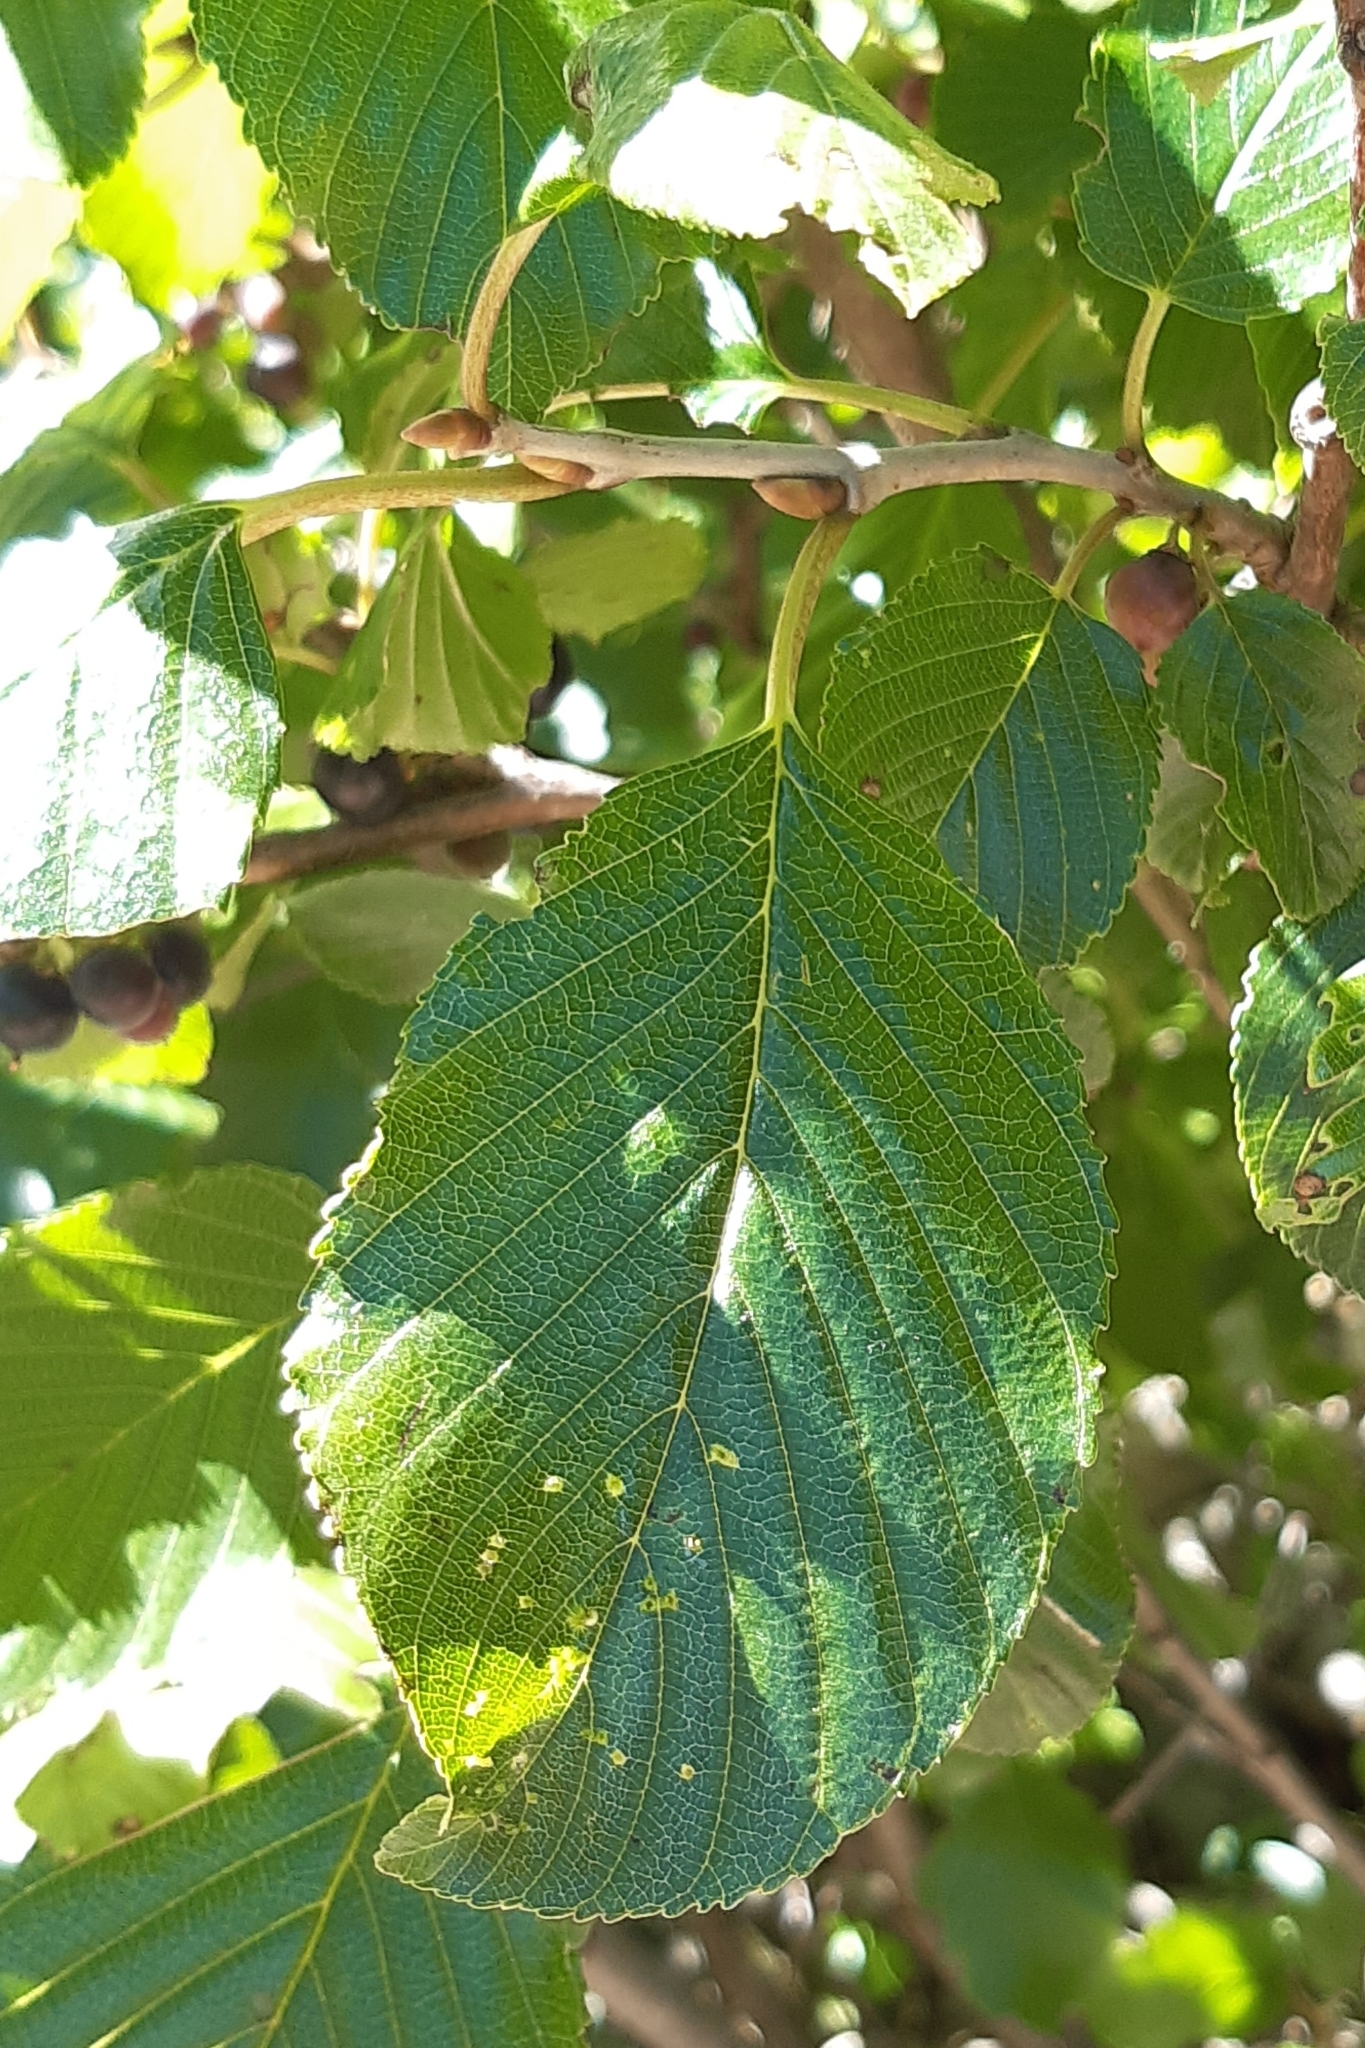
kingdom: Plantae
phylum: Tracheophyta
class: Magnoliopsida
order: Rosales
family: Rhamnaceae
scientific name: Rhamnaceae
